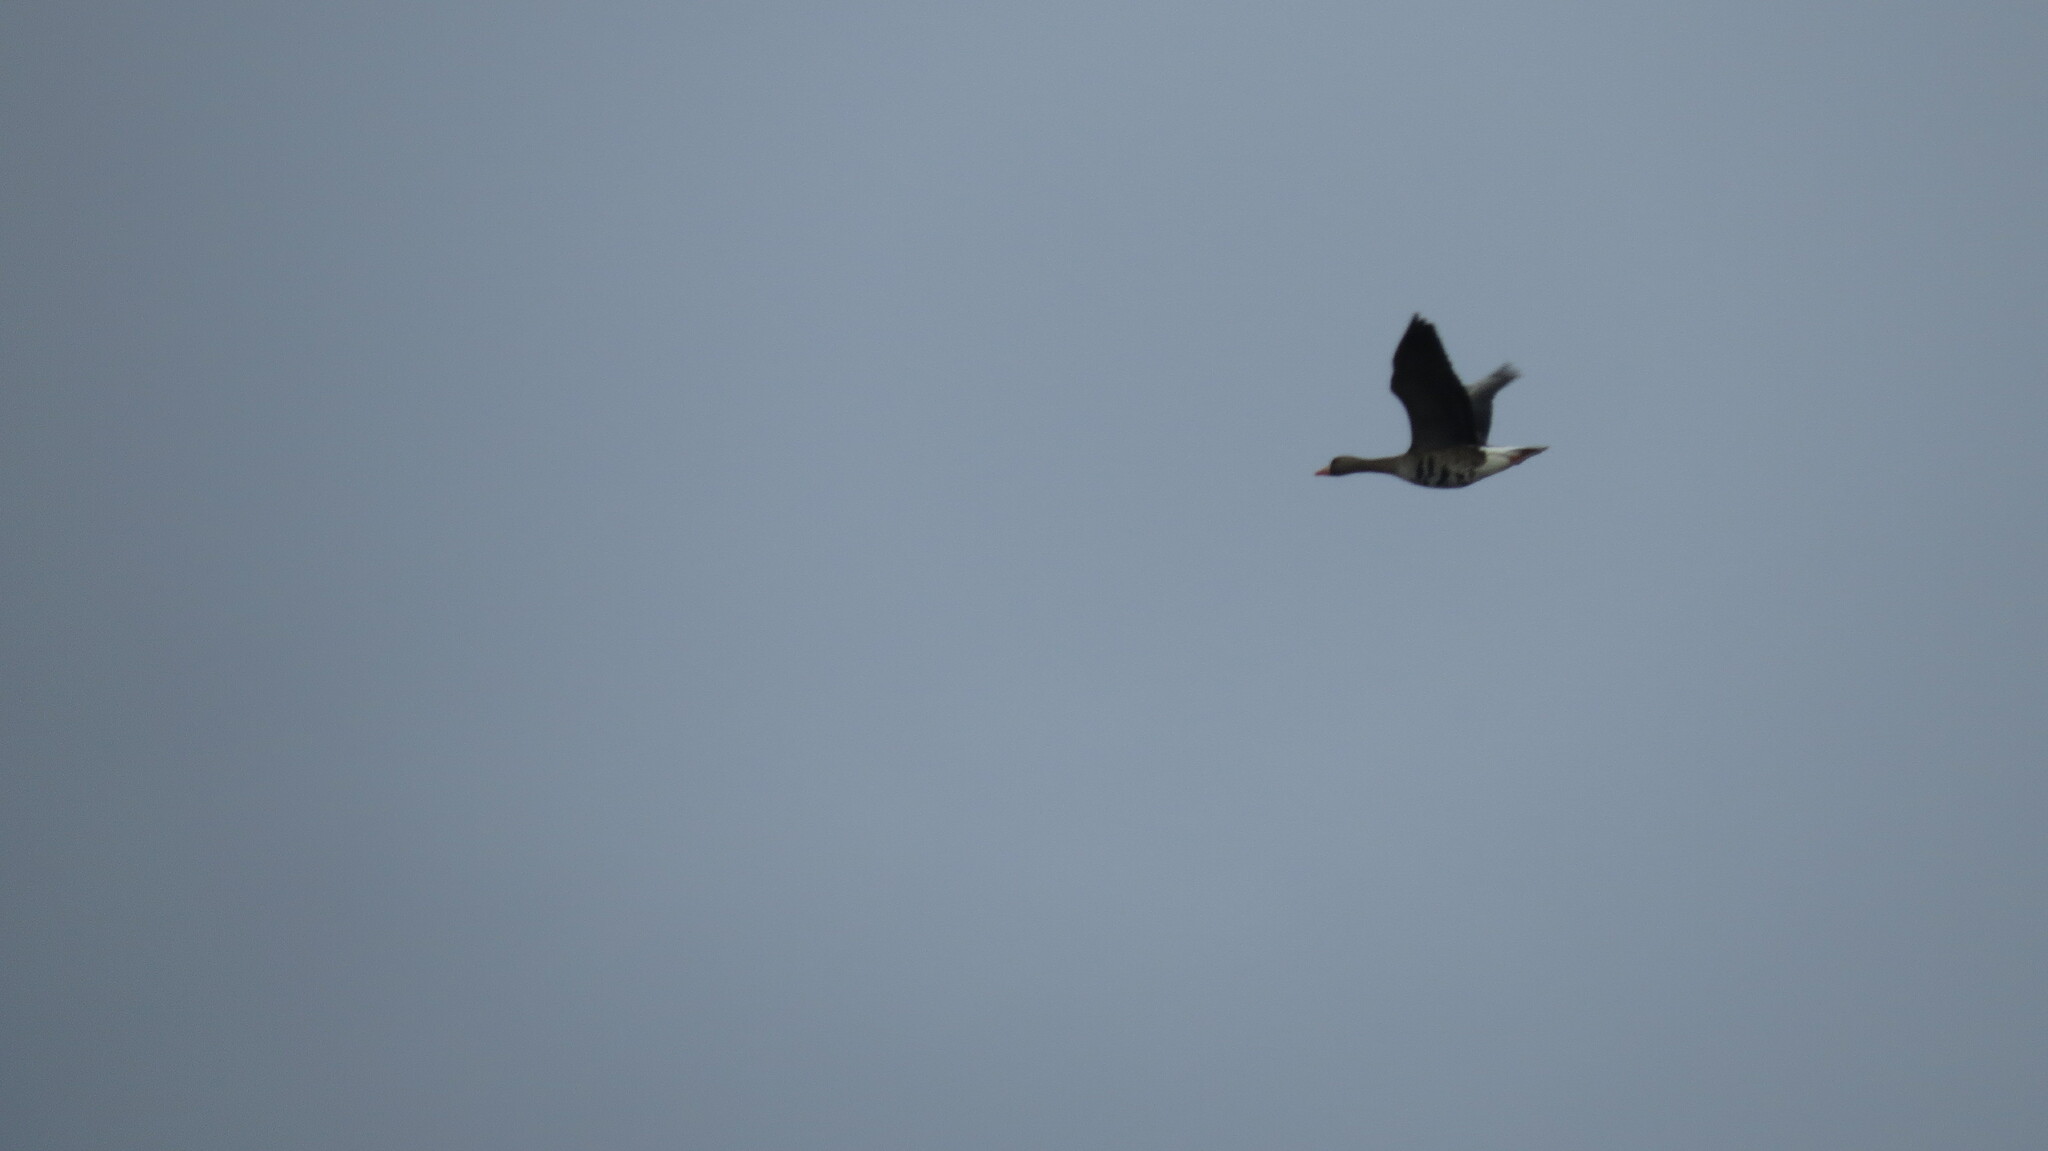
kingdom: Animalia
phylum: Chordata
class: Aves
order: Anseriformes
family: Anatidae
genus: Anser
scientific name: Anser albifrons
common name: Greater white-fronted goose
